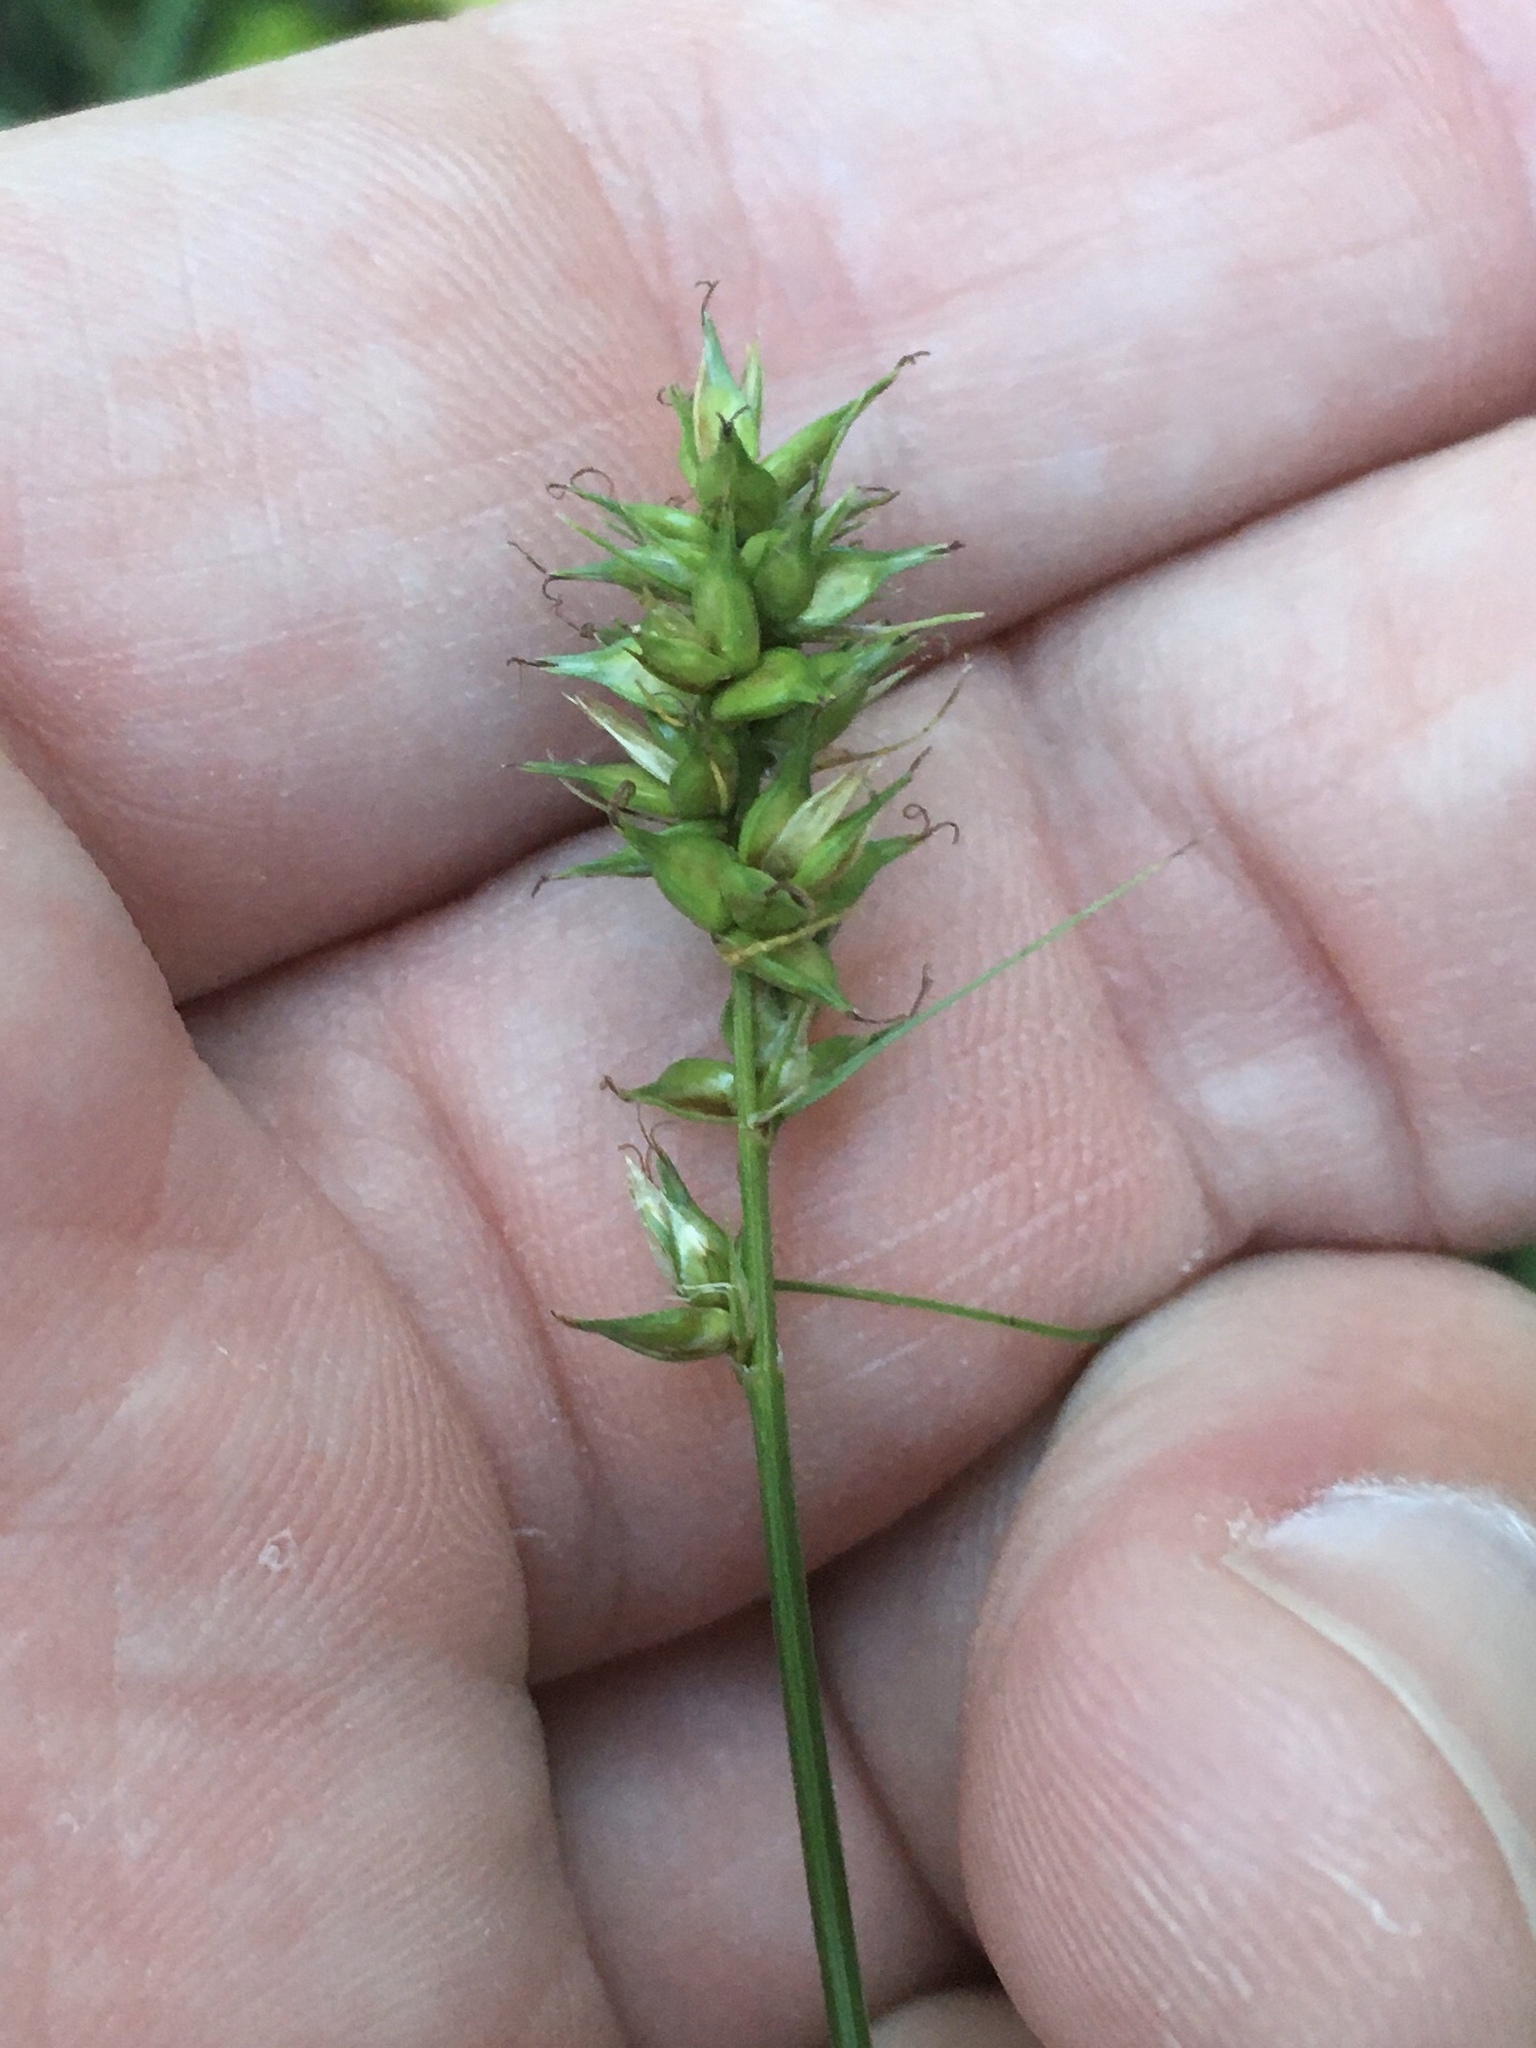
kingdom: Plantae
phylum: Tracheophyta
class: Liliopsida
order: Poales
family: Cyperaceae
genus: Carex
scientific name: Carex spicata
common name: Spiked sedge
